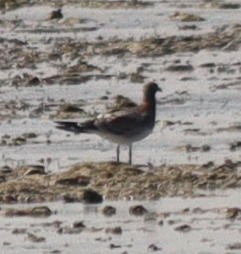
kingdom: Animalia
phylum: Chordata
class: Aves
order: Charadriiformes
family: Laridae
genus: Ichthyaetus
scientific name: Ichthyaetus hemprichii
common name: Sooty gull
